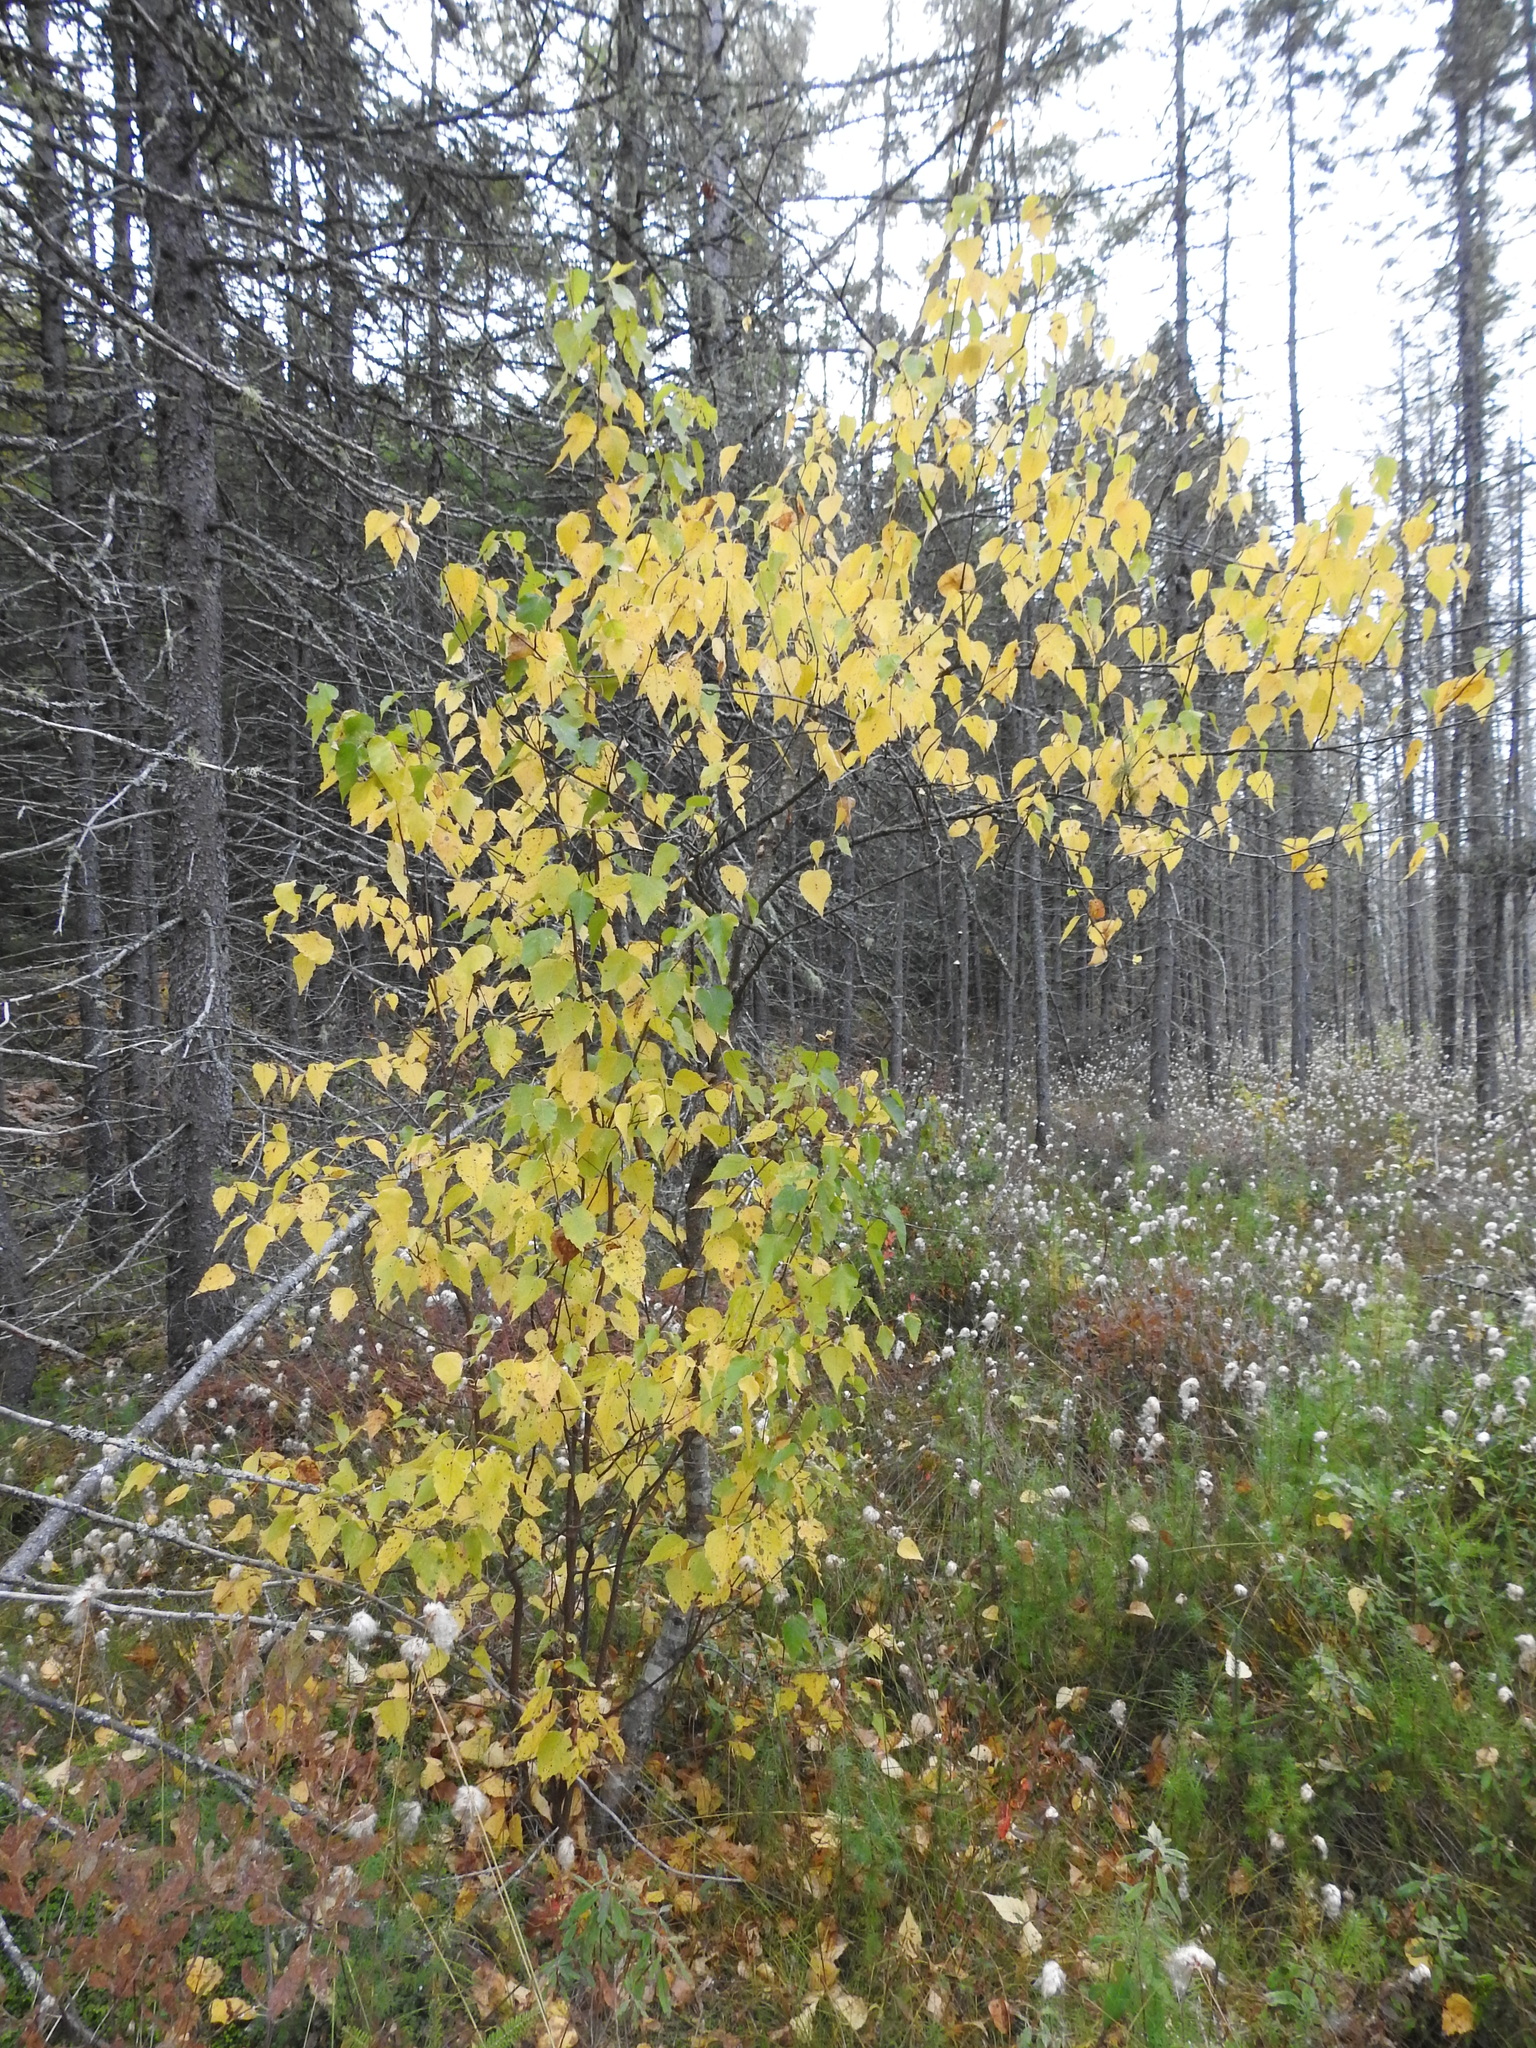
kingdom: Plantae
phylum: Tracheophyta
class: Magnoliopsida
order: Fagales
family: Betulaceae
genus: Betula
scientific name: Betula populifolia
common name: Fire birch
